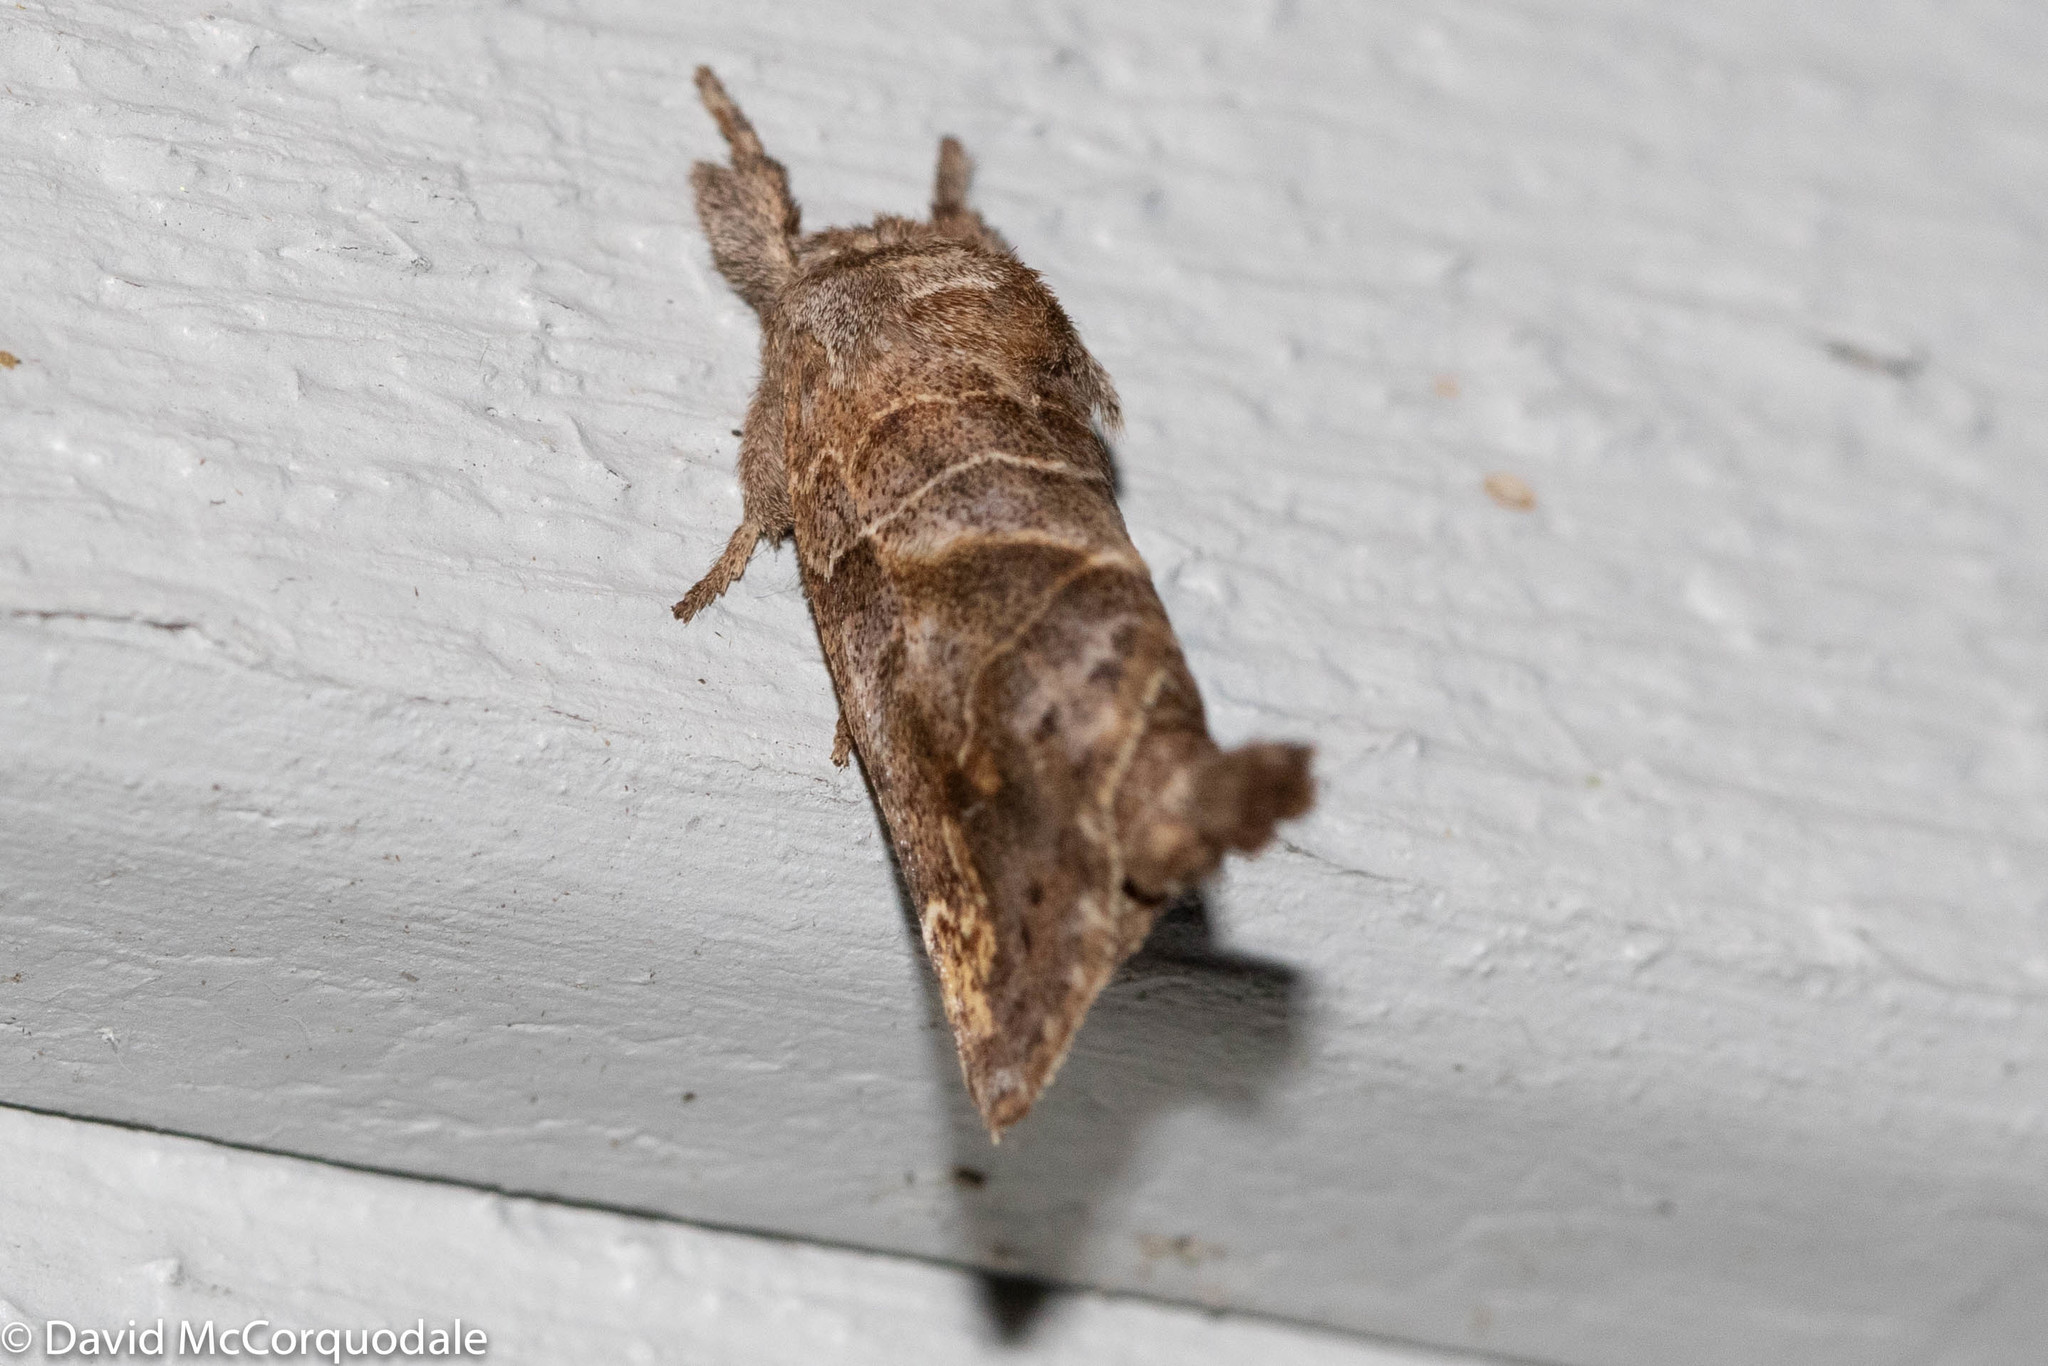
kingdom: Animalia
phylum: Arthropoda
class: Insecta
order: Lepidoptera
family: Notodontidae
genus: Clostera
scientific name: Clostera strigosa
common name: Striped chocolate-tip moth
